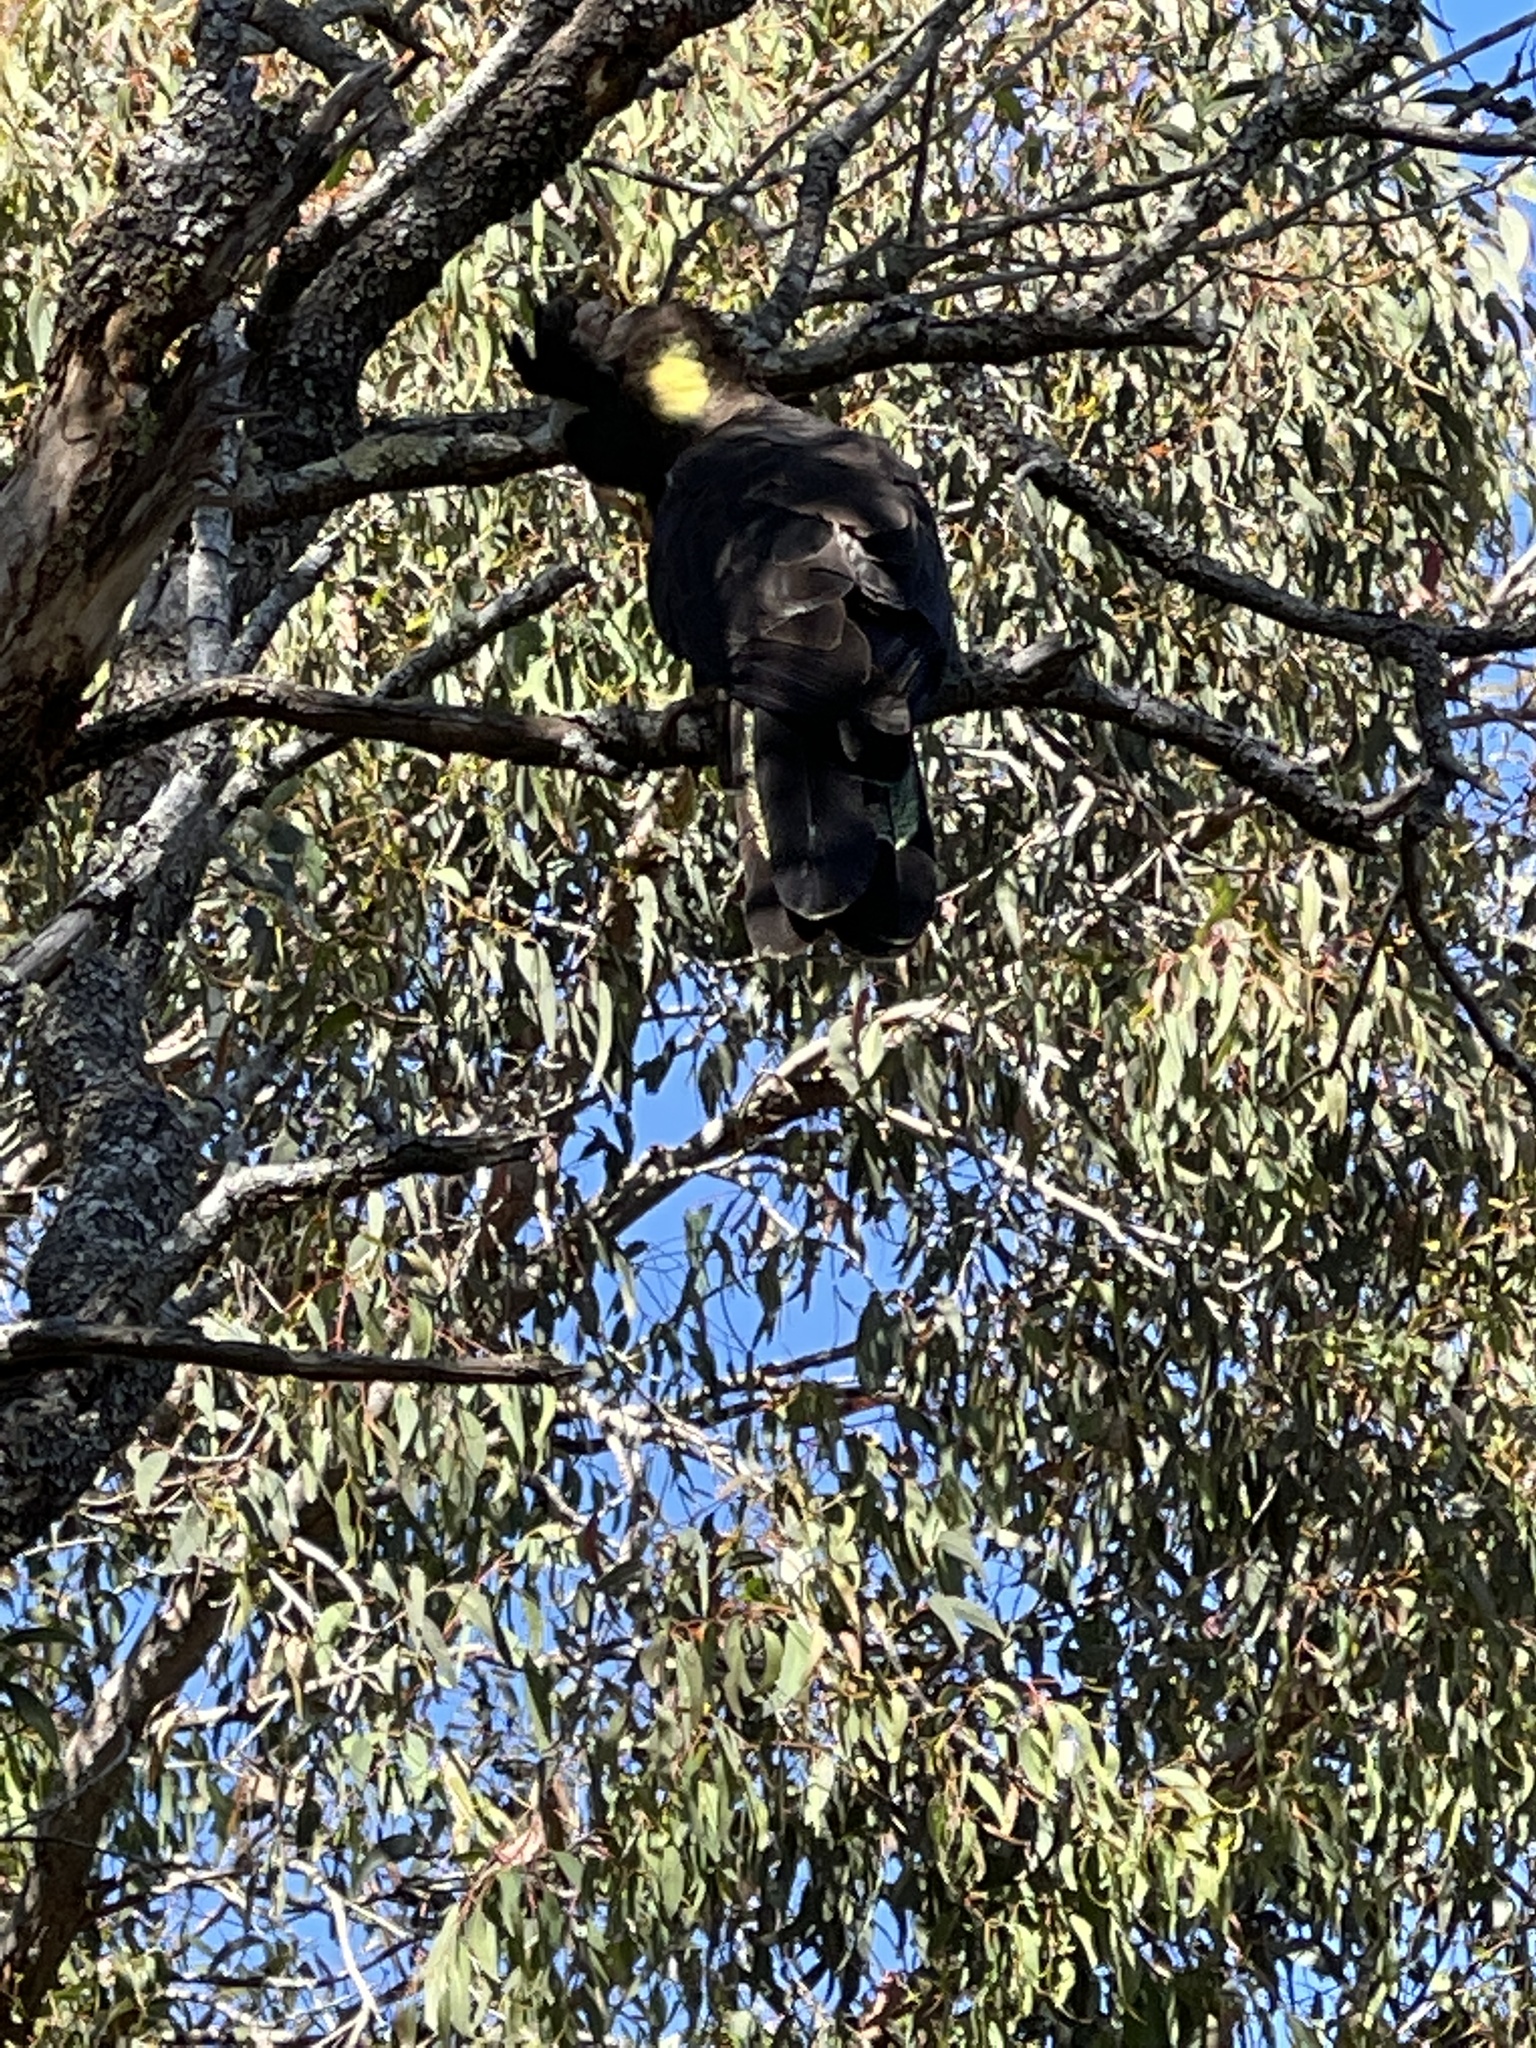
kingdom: Animalia
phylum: Chordata
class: Aves
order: Psittaciformes
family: Cacatuidae
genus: Zanda
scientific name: Zanda funerea
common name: Yellow-tailed black-cockatoo
